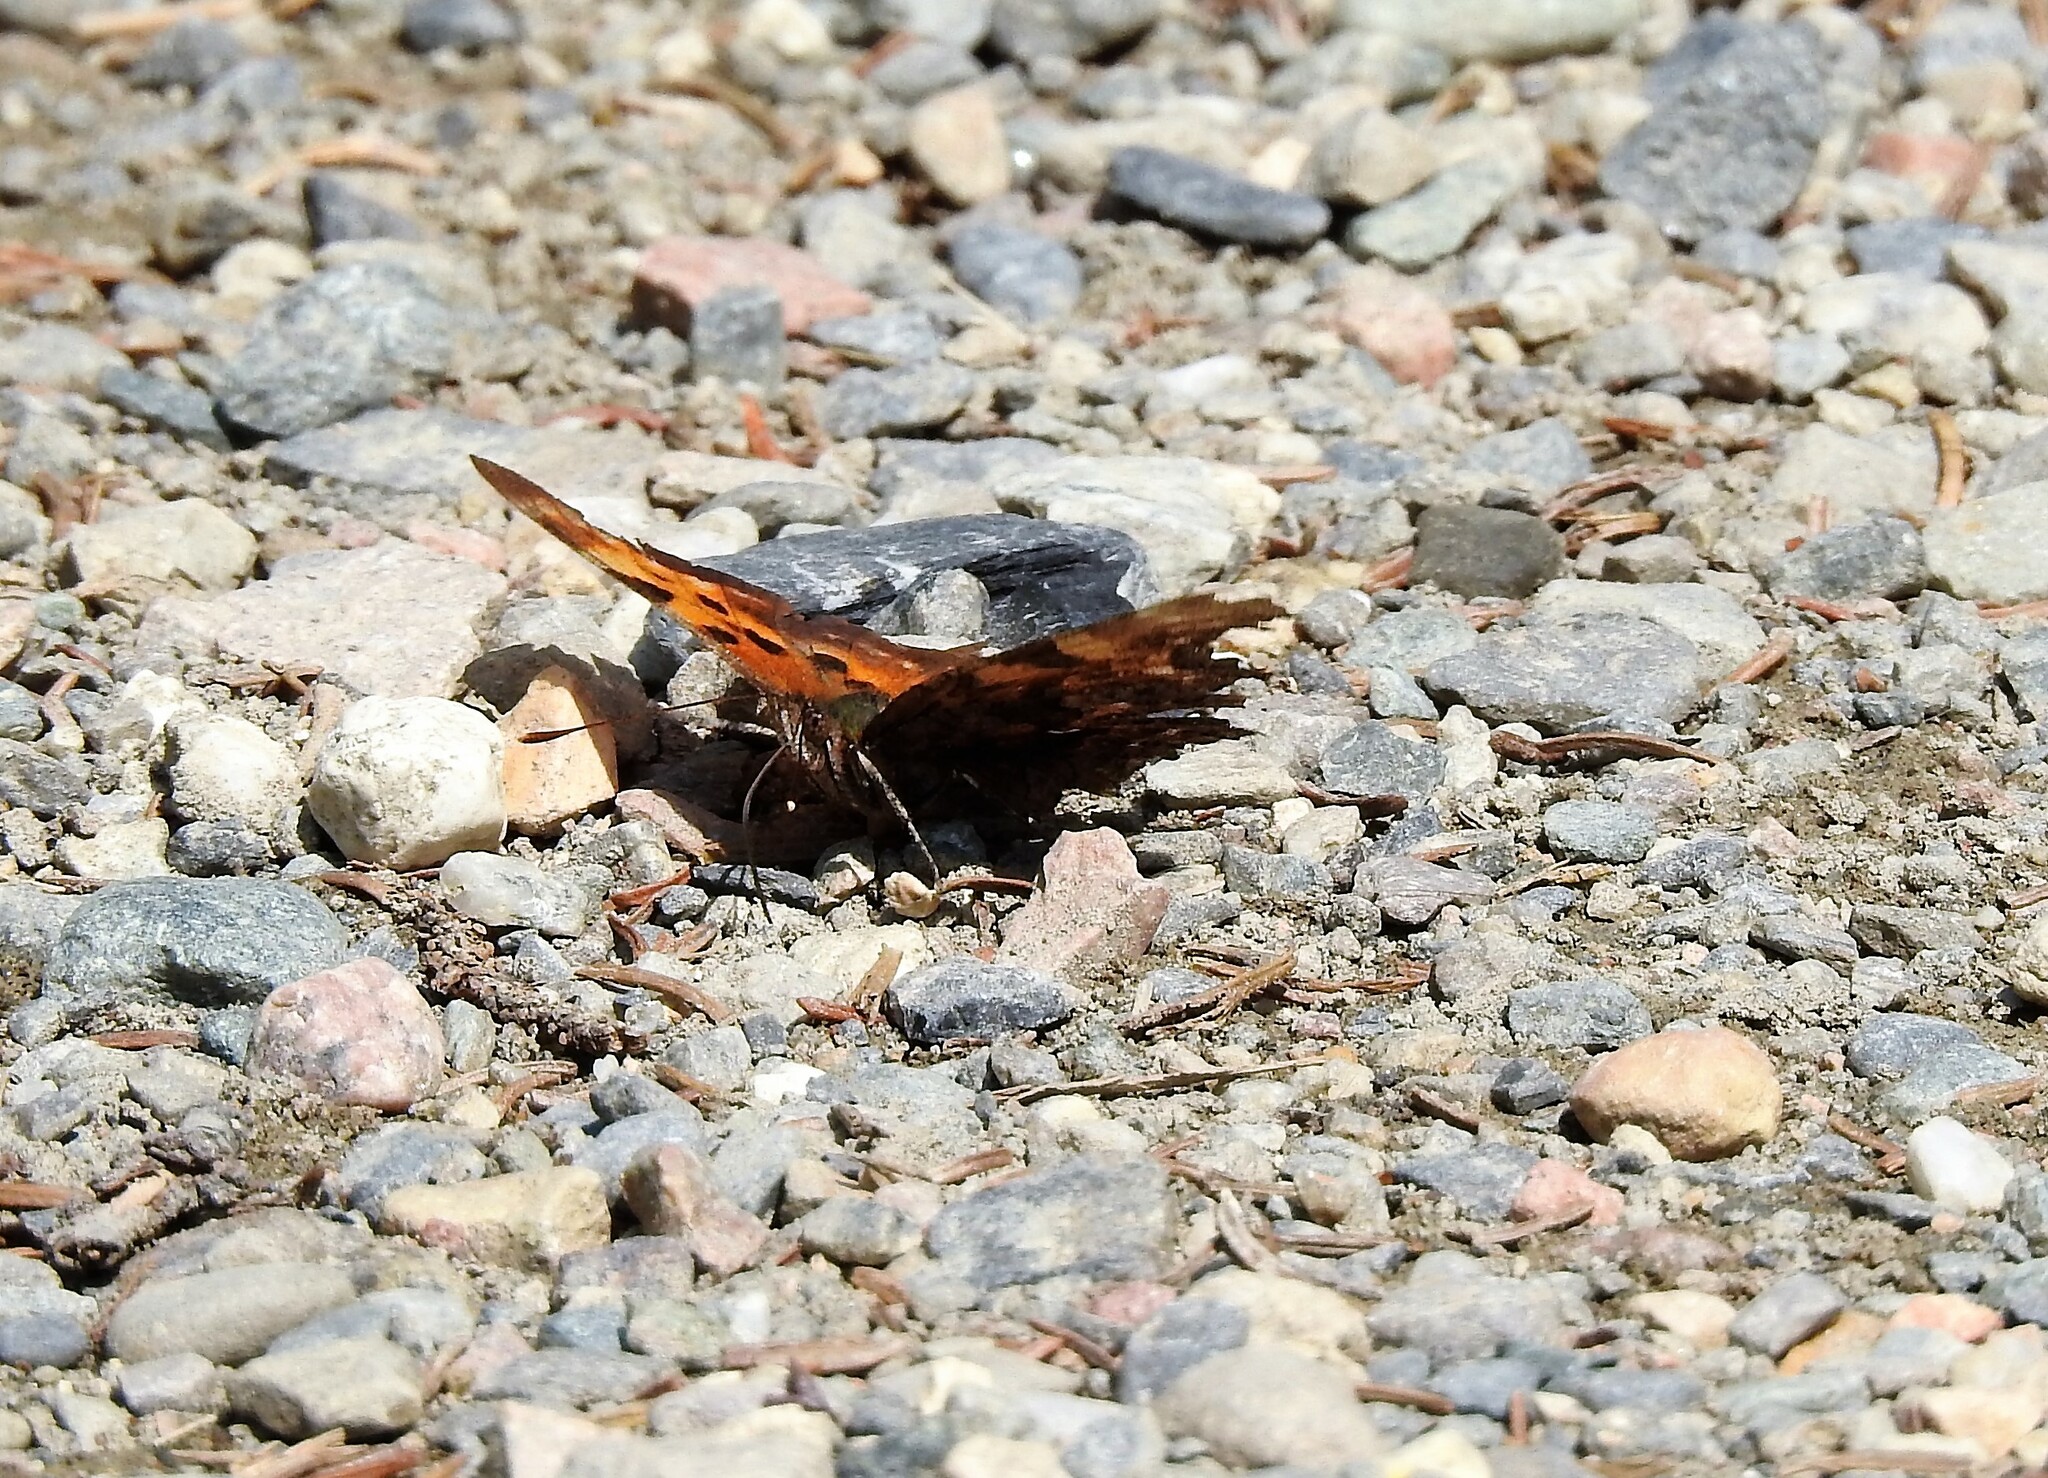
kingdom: Animalia
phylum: Arthropoda
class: Insecta
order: Lepidoptera
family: Nymphalidae
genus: Polygonia
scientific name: Polygonia faunus
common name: Green comma
